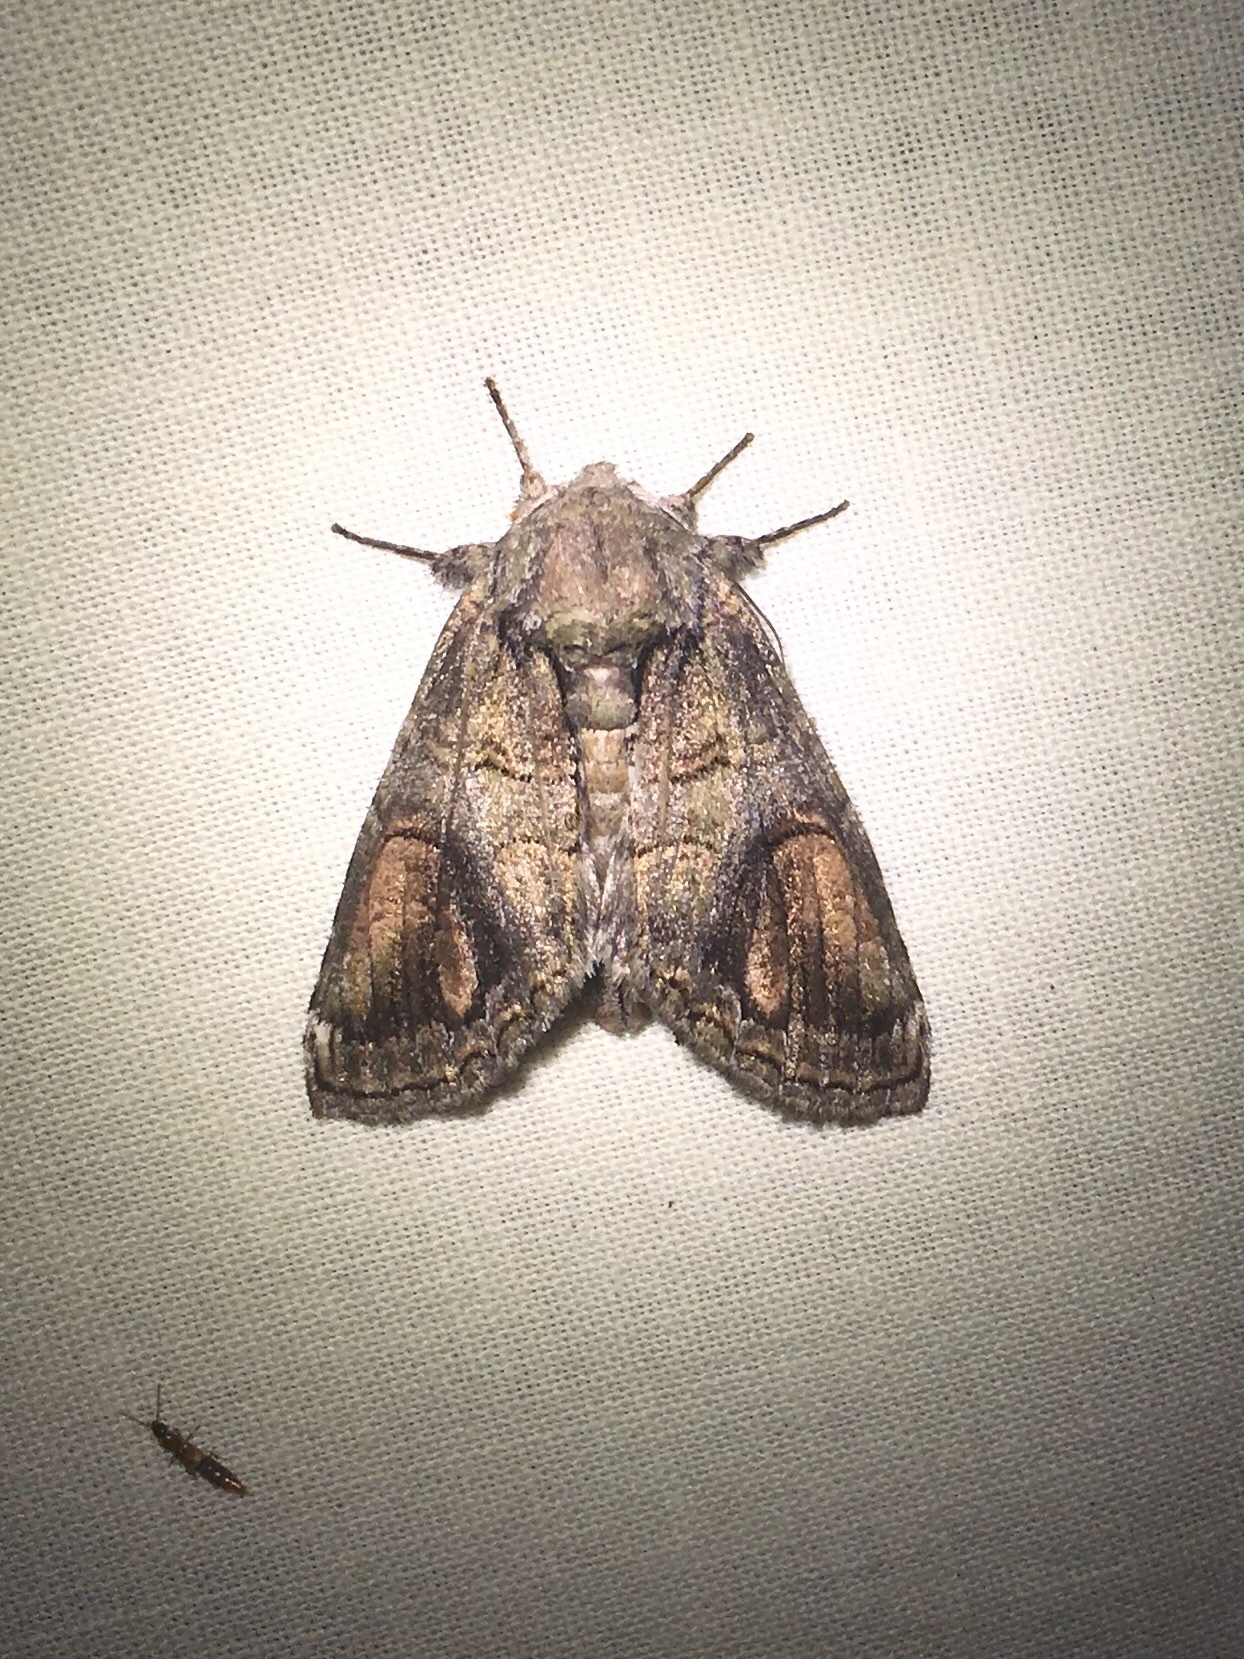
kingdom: Animalia
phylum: Arthropoda
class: Insecta
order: Lepidoptera
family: Notodontidae
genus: Heterocampa
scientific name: Heterocampa obliqua
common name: Oblique heterocampa
